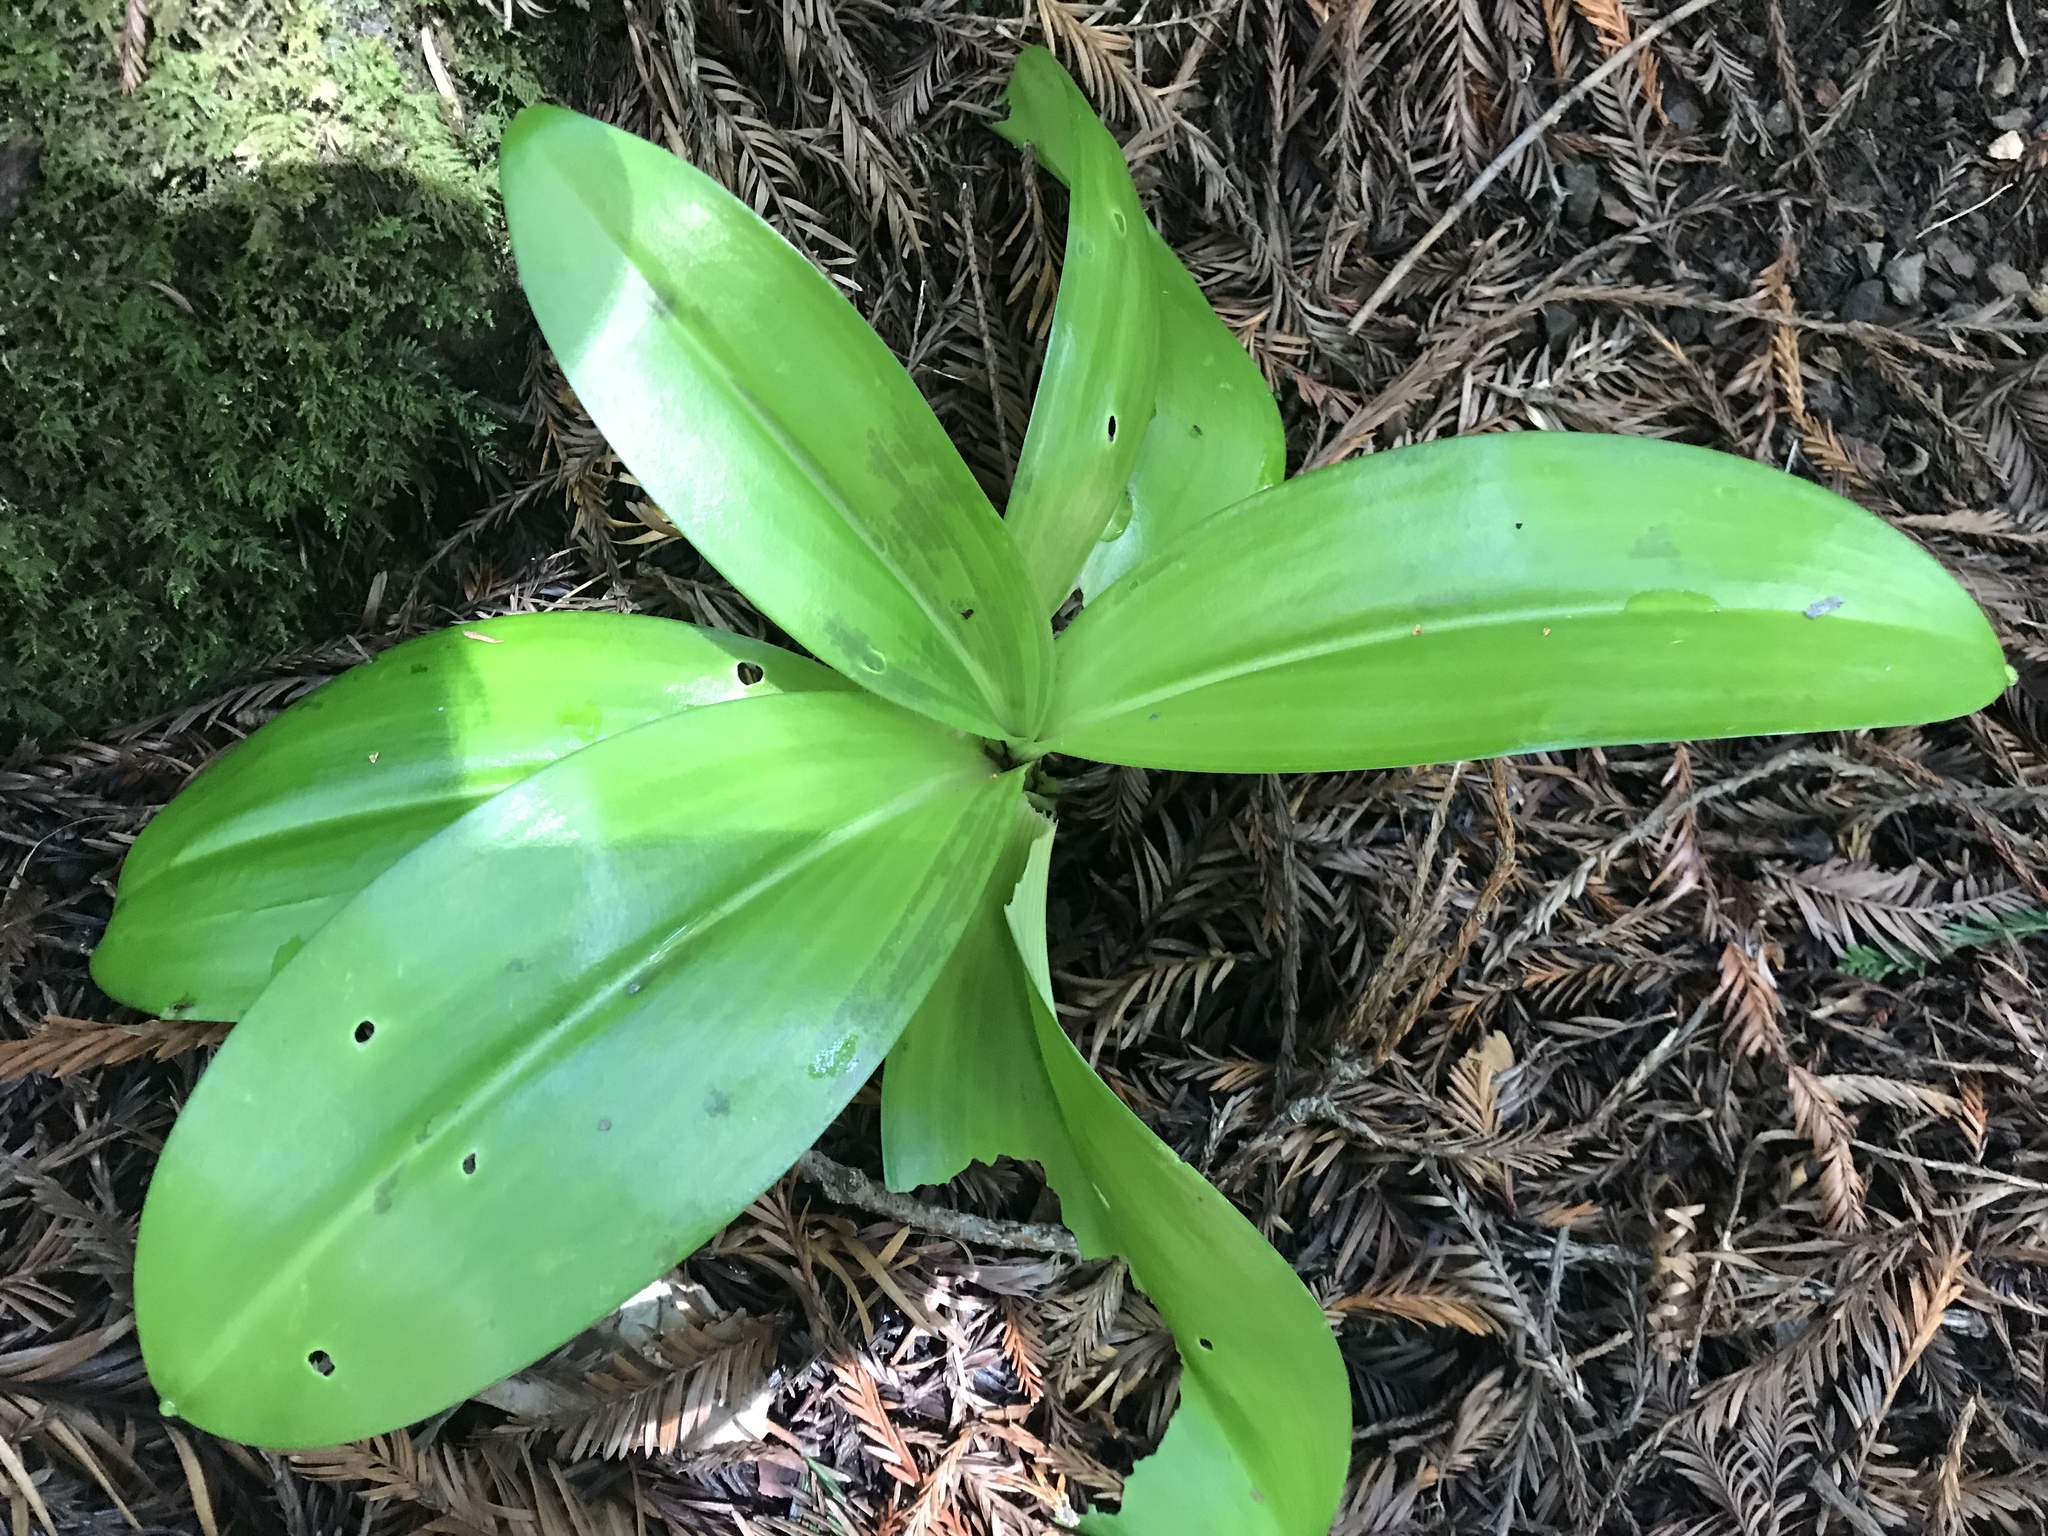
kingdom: Plantae
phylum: Tracheophyta
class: Liliopsida
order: Liliales
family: Liliaceae
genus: Clintonia
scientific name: Clintonia andrewsiana
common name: Red clintonia
